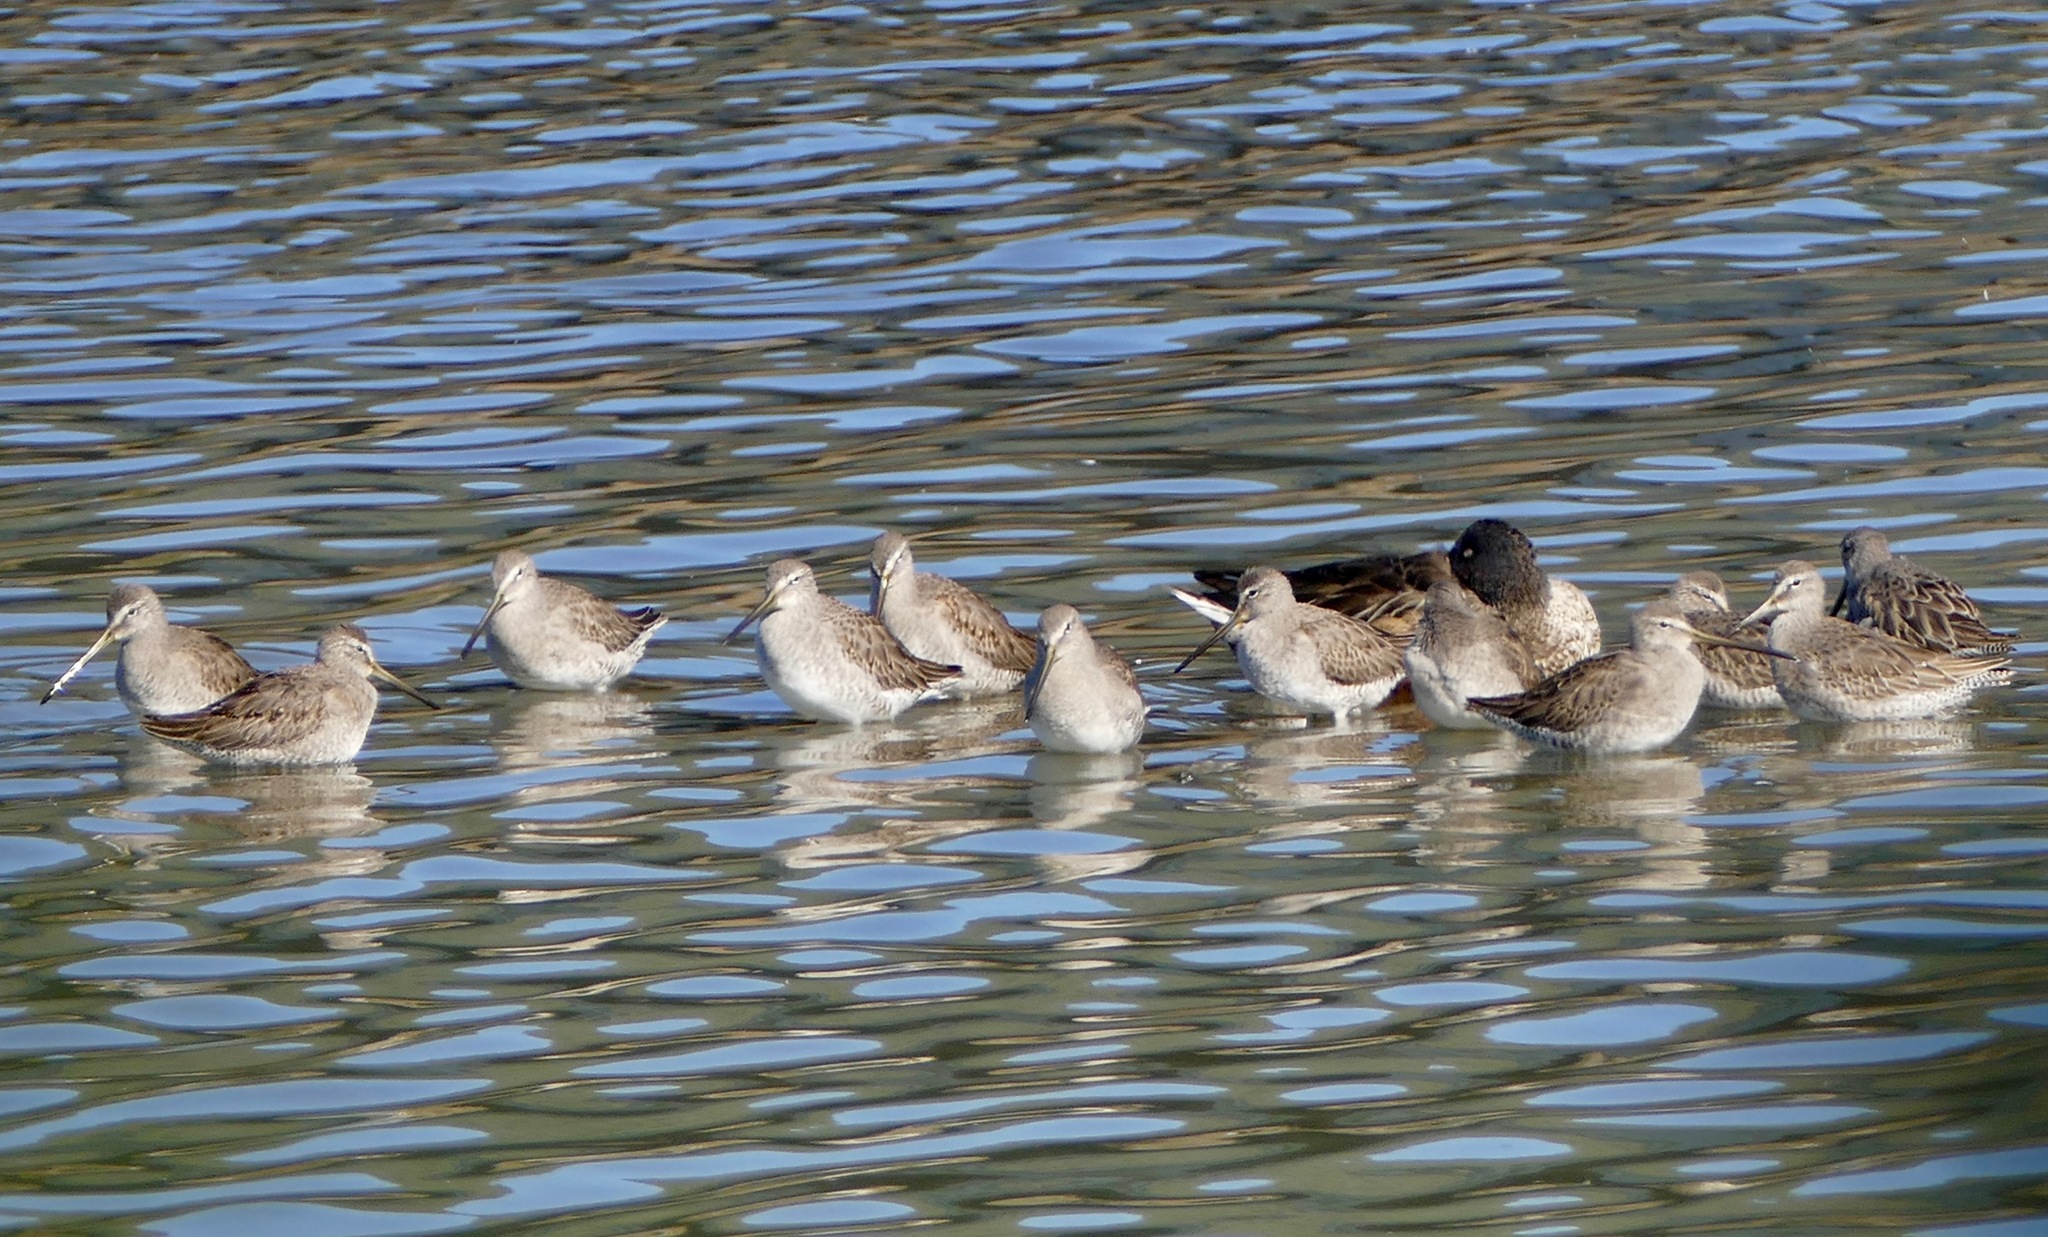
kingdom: Animalia
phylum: Chordata
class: Aves
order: Charadriiformes
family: Scolopacidae
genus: Limnodromus
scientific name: Limnodromus
